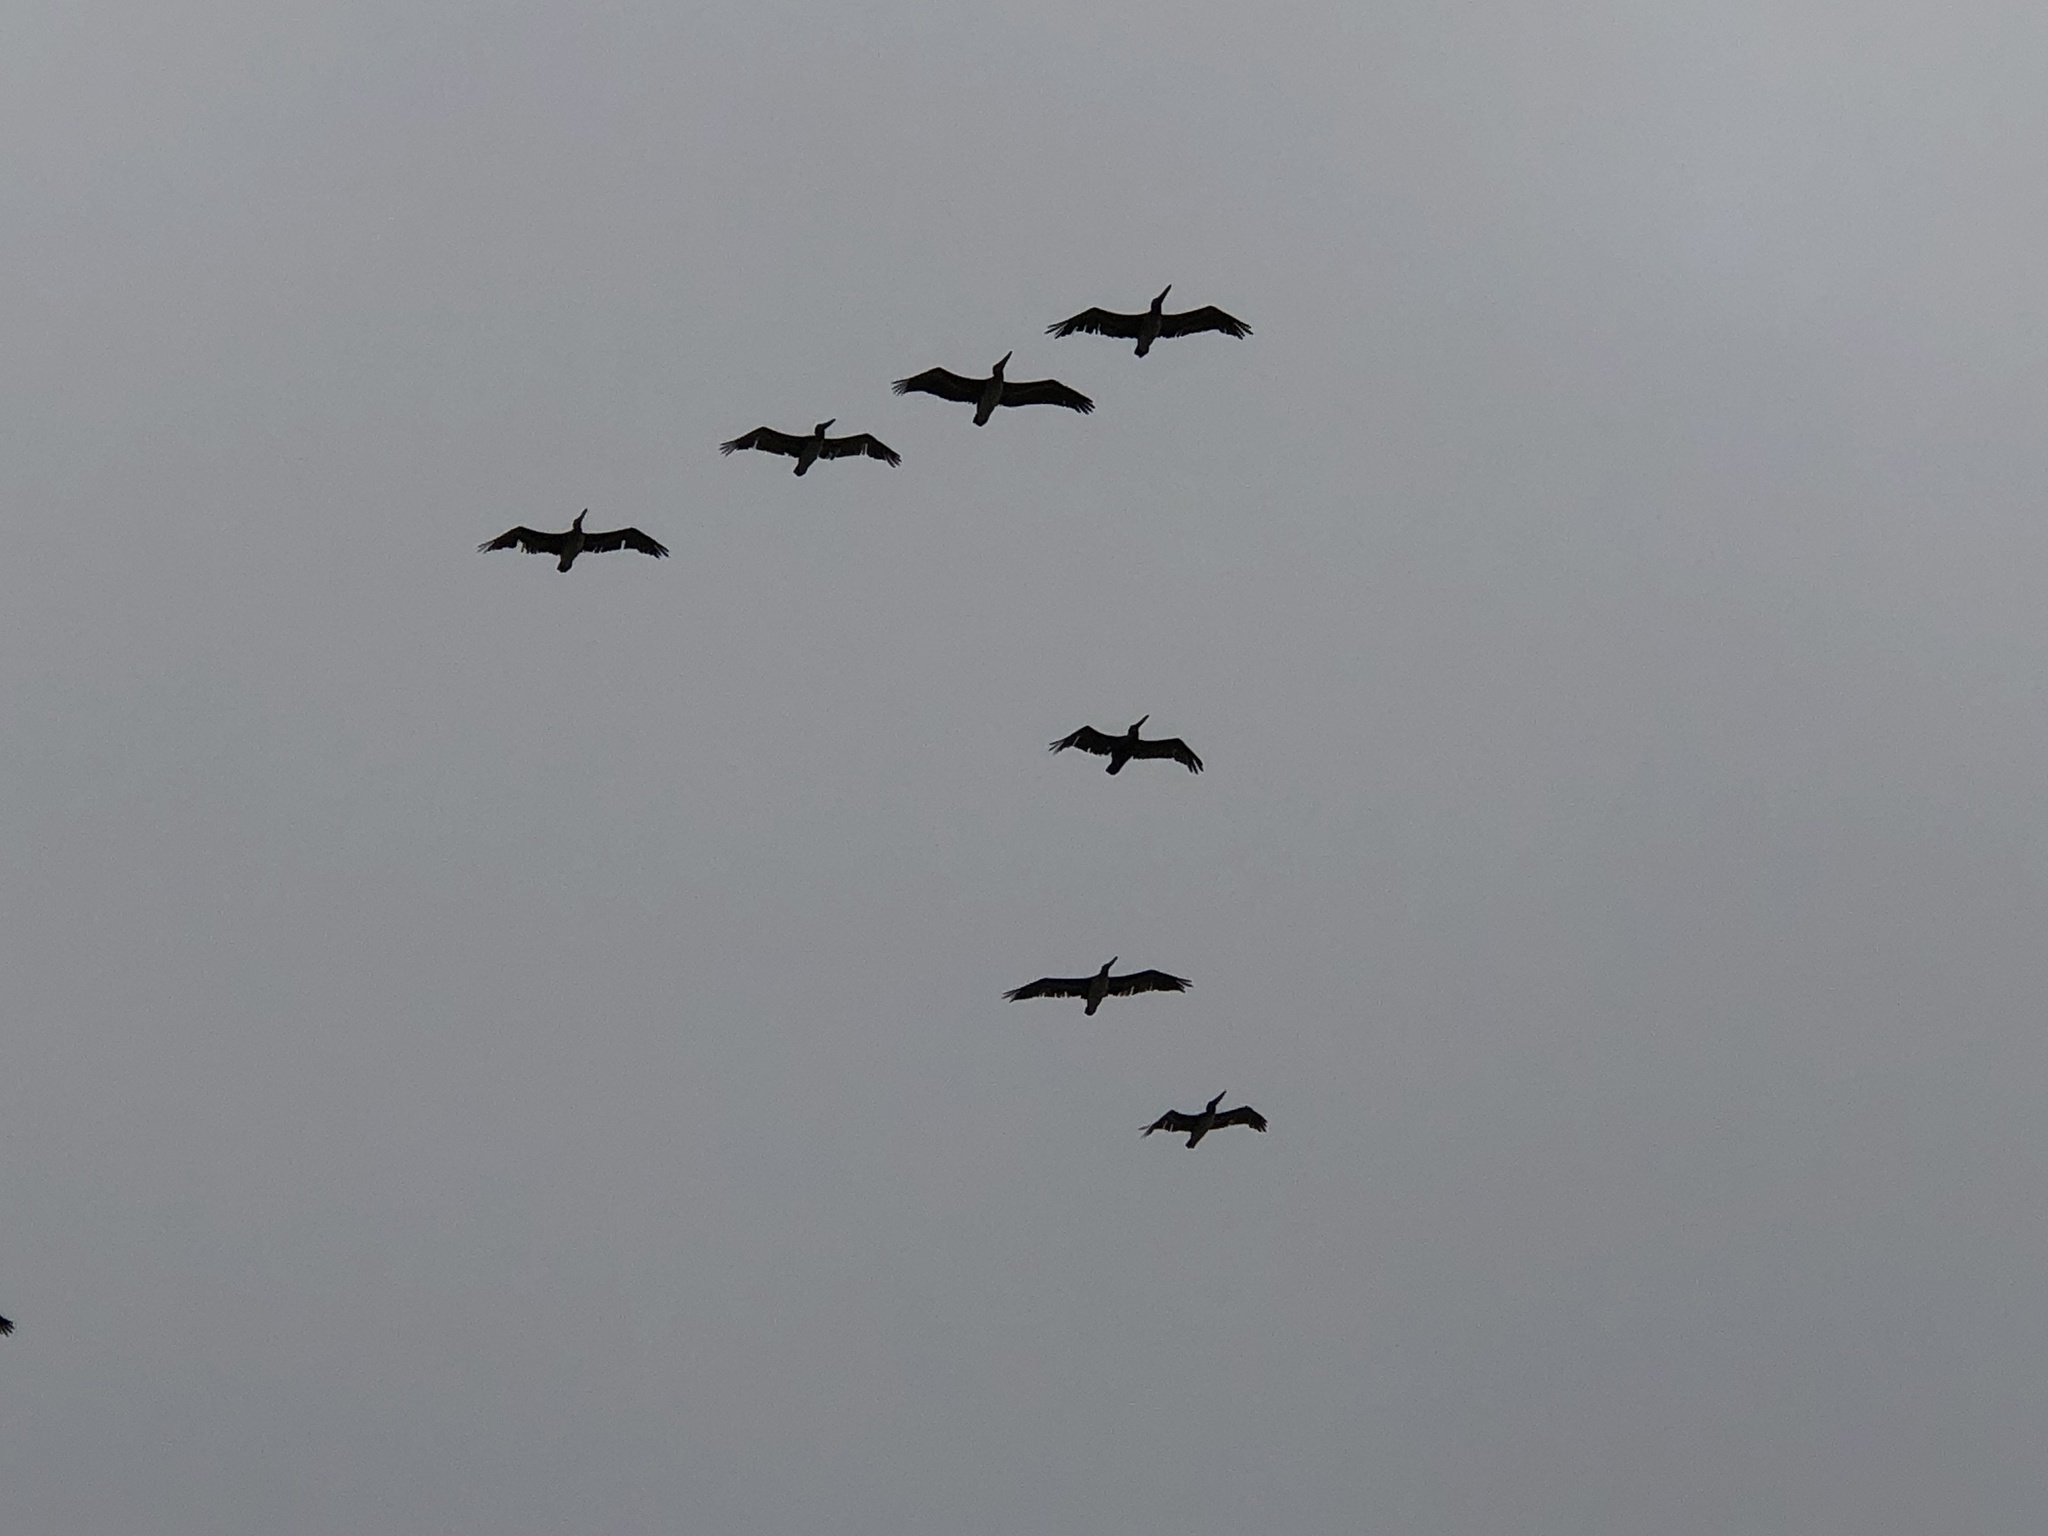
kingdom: Animalia
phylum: Chordata
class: Aves
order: Pelecaniformes
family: Pelecanidae
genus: Pelecanus
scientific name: Pelecanus occidentalis
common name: Brown pelican
